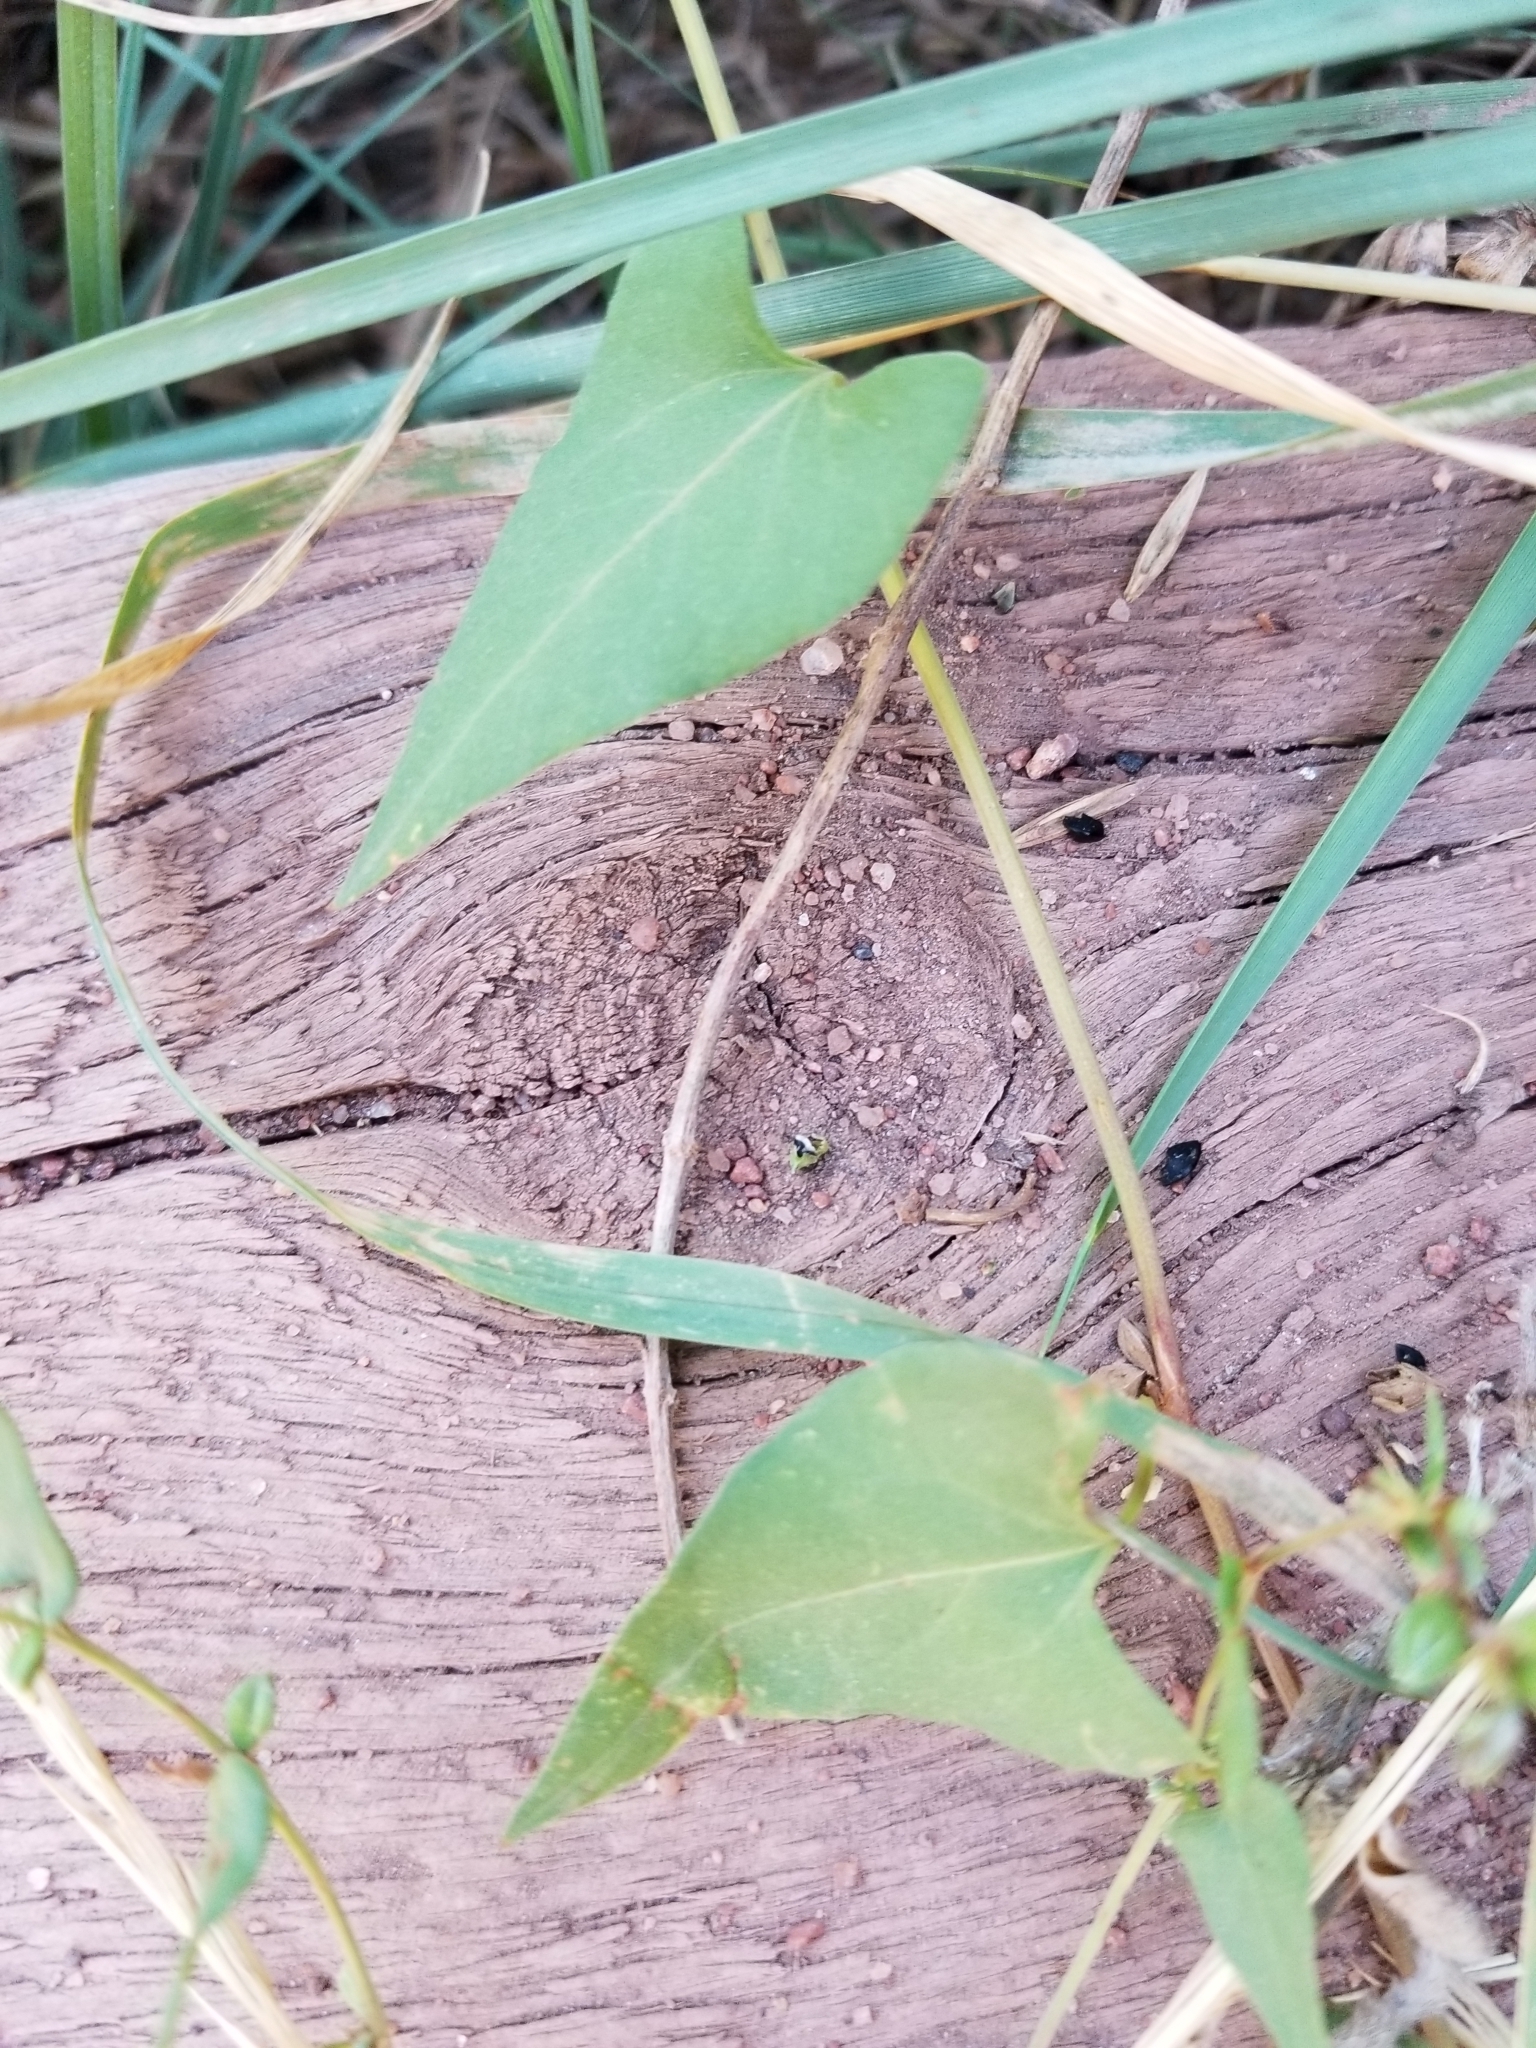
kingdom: Plantae
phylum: Tracheophyta
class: Magnoliopsida
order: Solanales
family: Convolvulaceae
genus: Convolvulus
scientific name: Convolvulus arvensis
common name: Field bindweed
